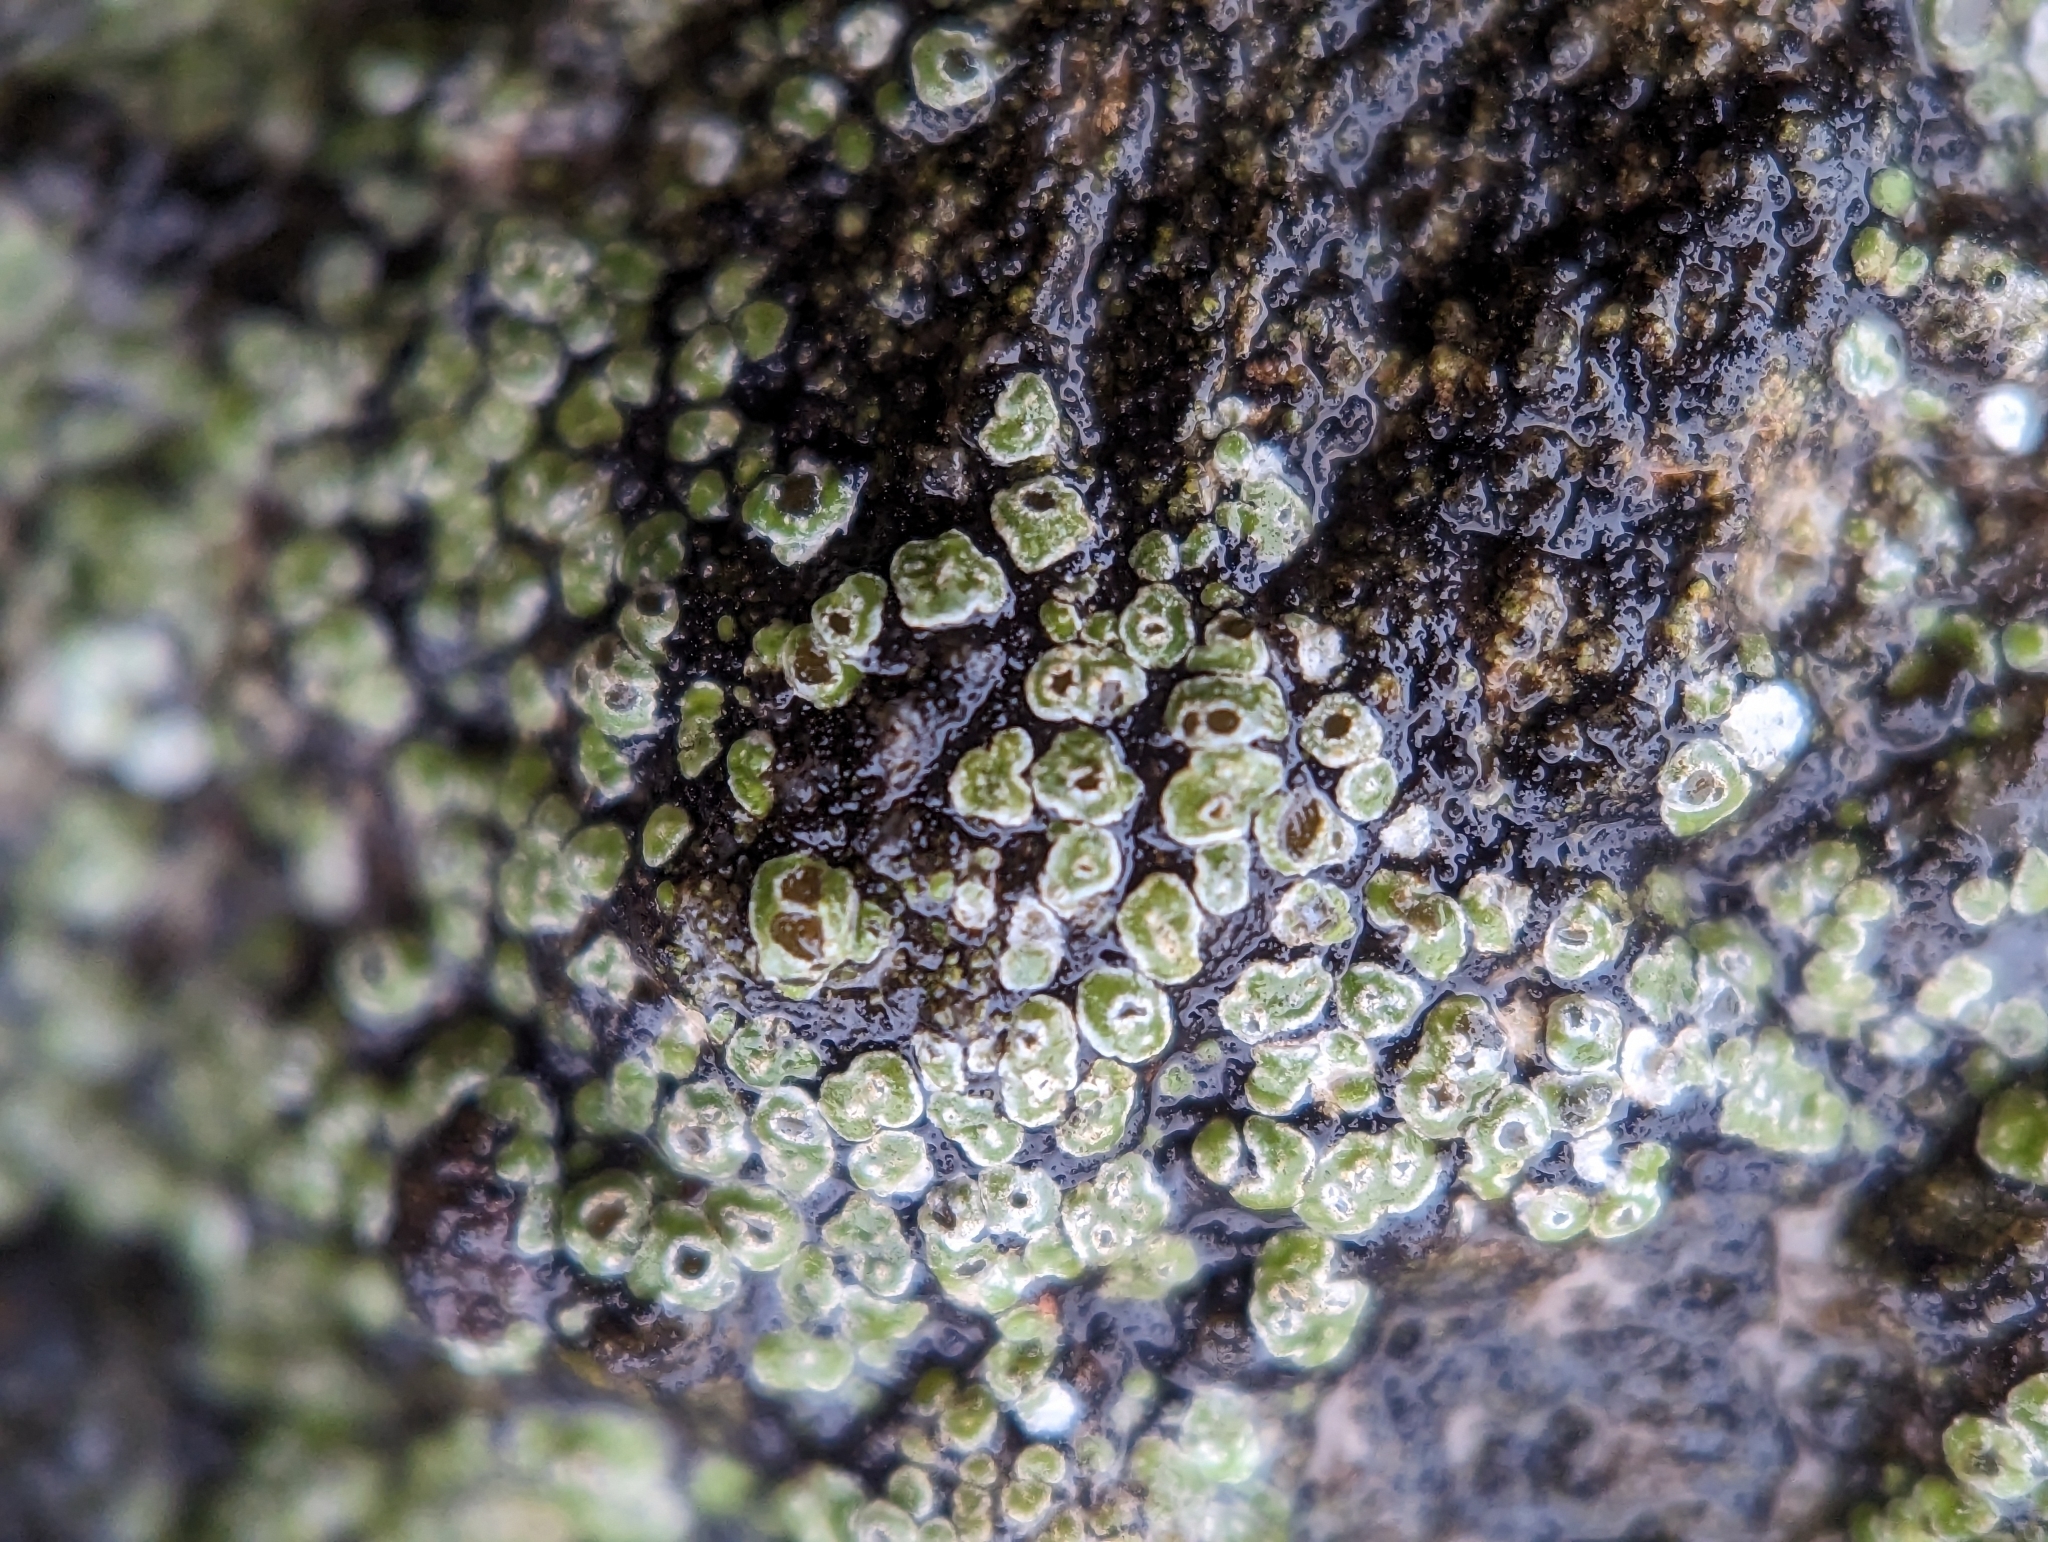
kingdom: Fungi
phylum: Ascomycota
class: Lecanoromycetes
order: Pertusariales
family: Megasporaceae
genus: Circinaria
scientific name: Circinaria contorta
